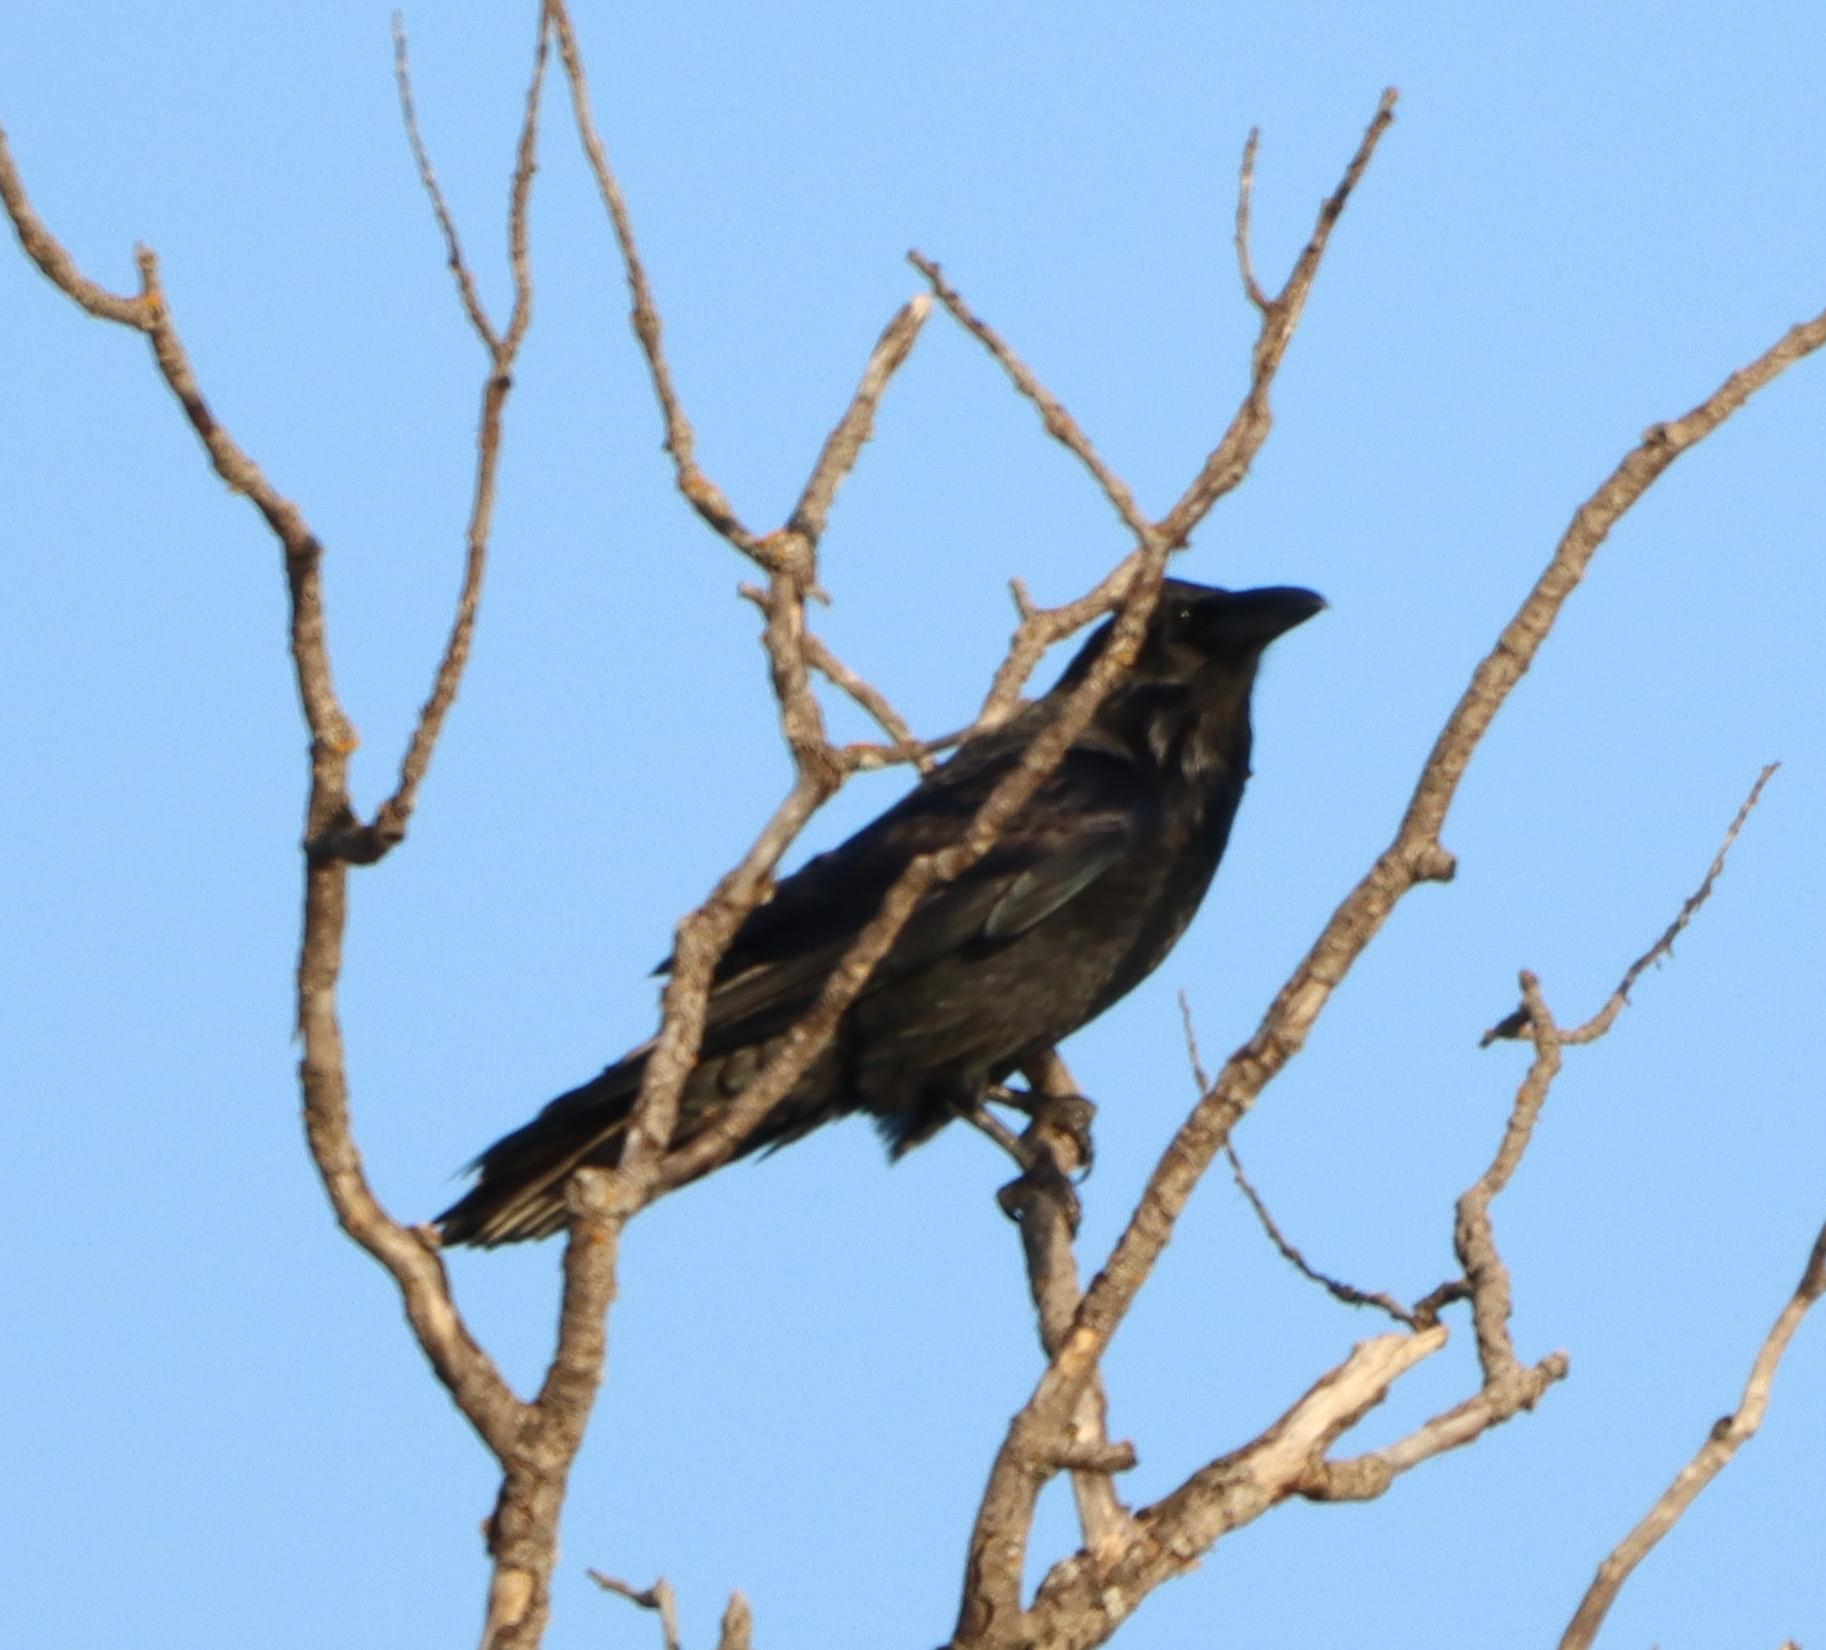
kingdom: Animalia
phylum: Chordata
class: Aves
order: Passeriformes
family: Corvidae
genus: Corvus
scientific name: Corvus corax
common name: Common raven
